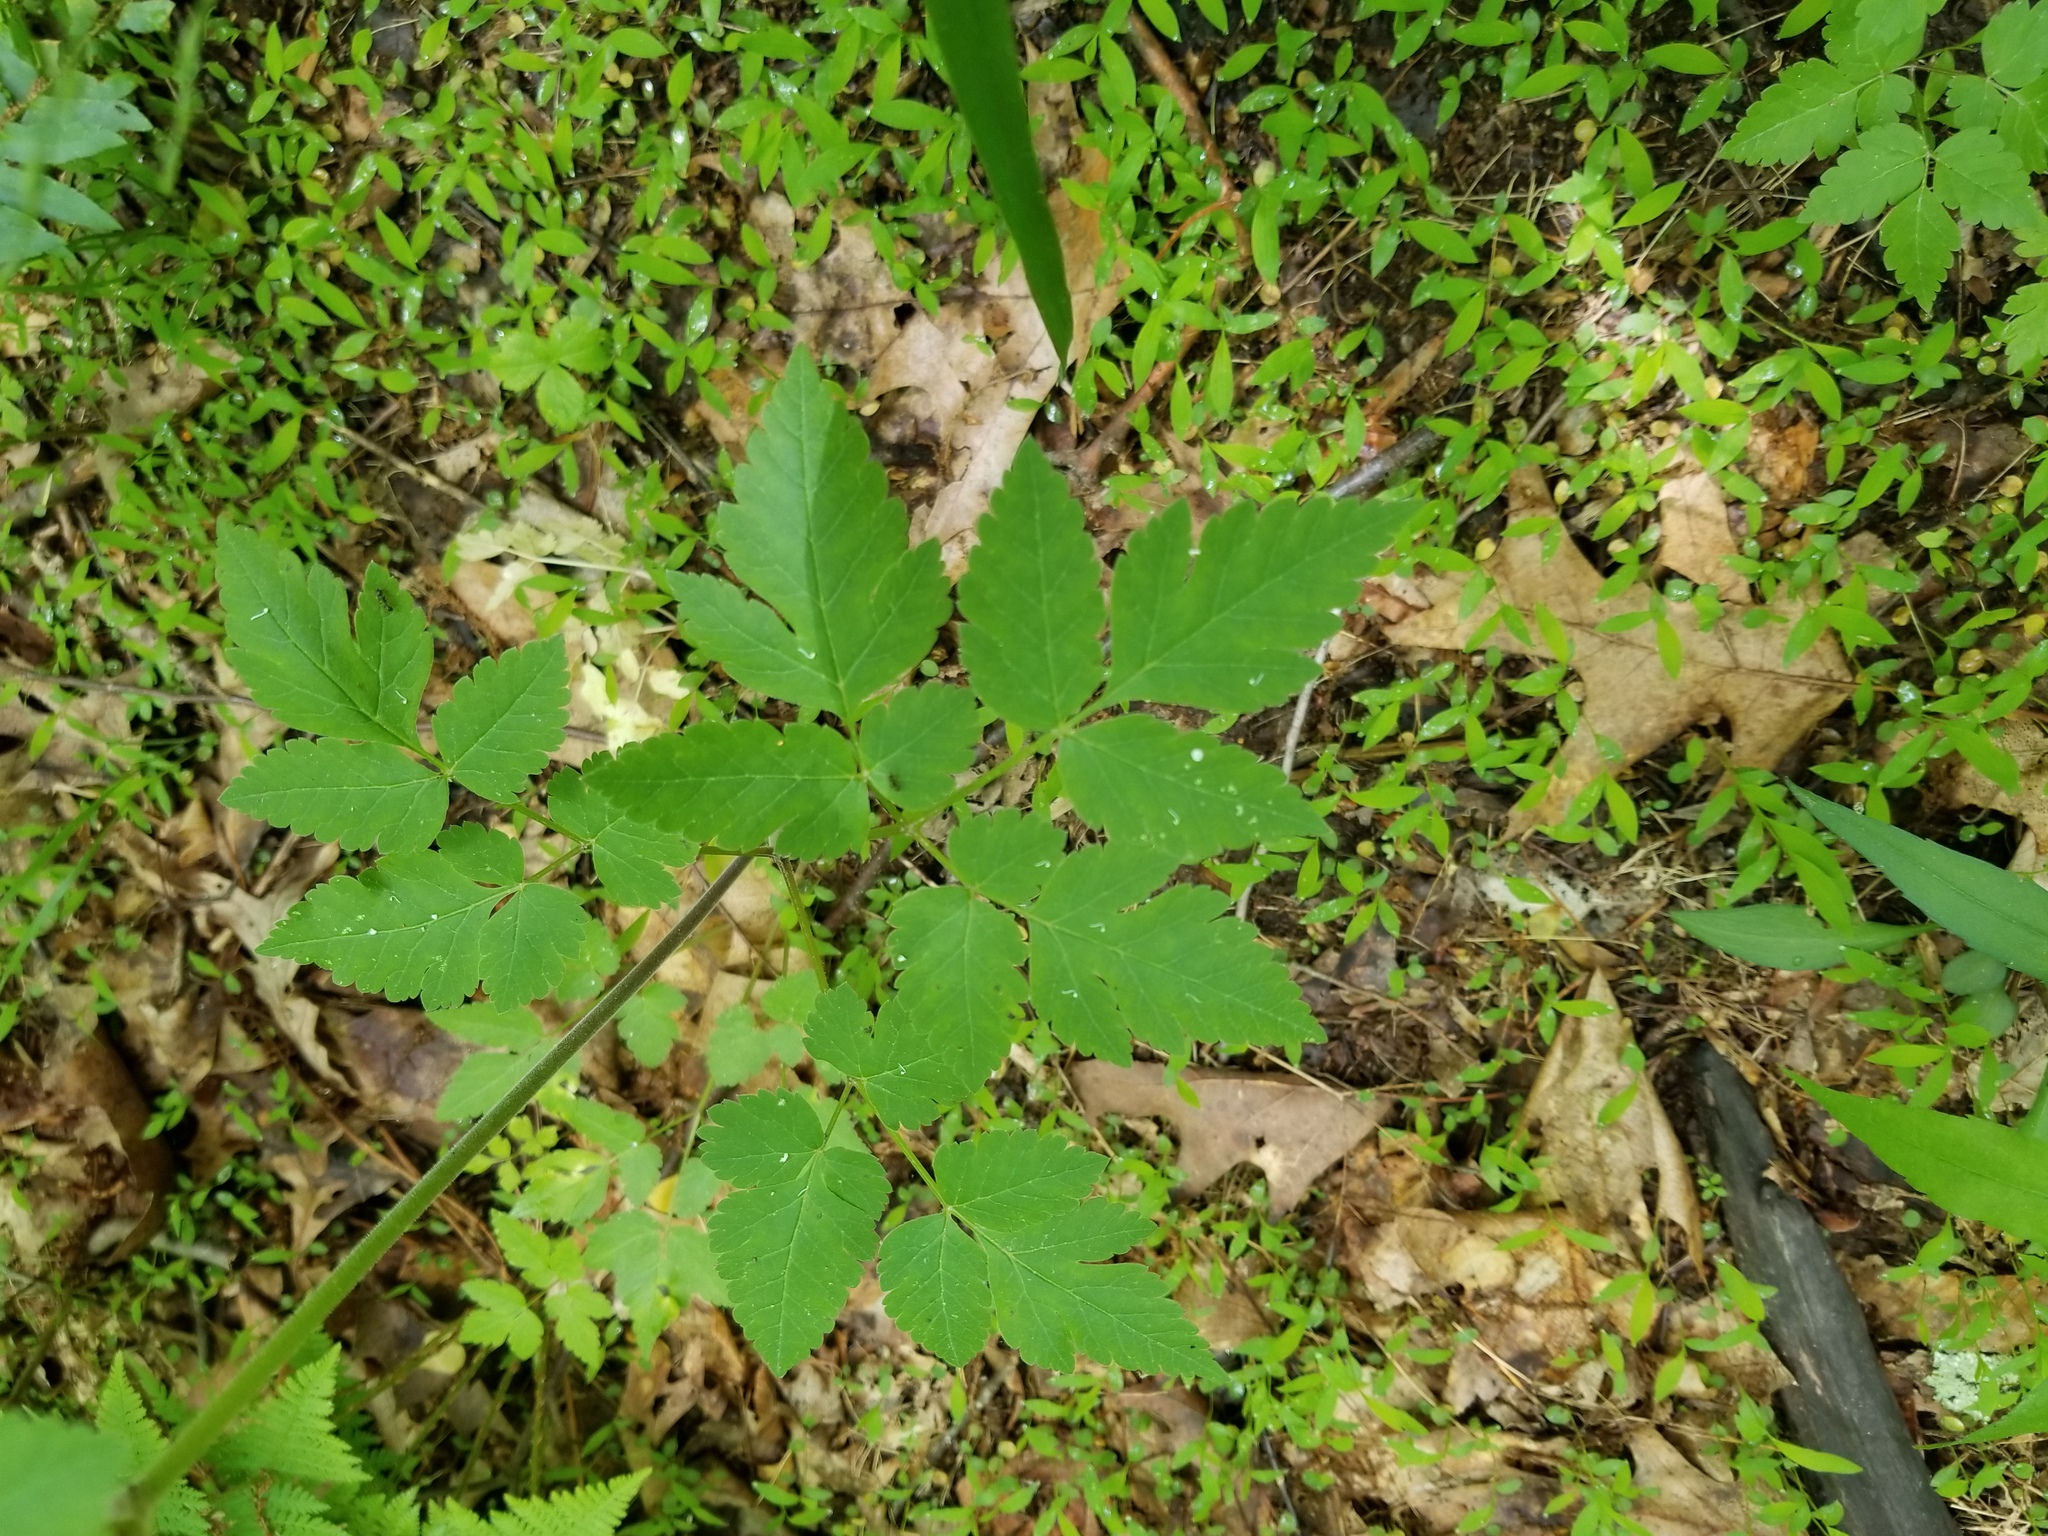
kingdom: Plantae
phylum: Tracheophyta
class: Magnoliopsida
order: Apiales
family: Apiaceae
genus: Osmorhiza
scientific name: Osmorhiza longistylis
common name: Smooth sweet cicely
